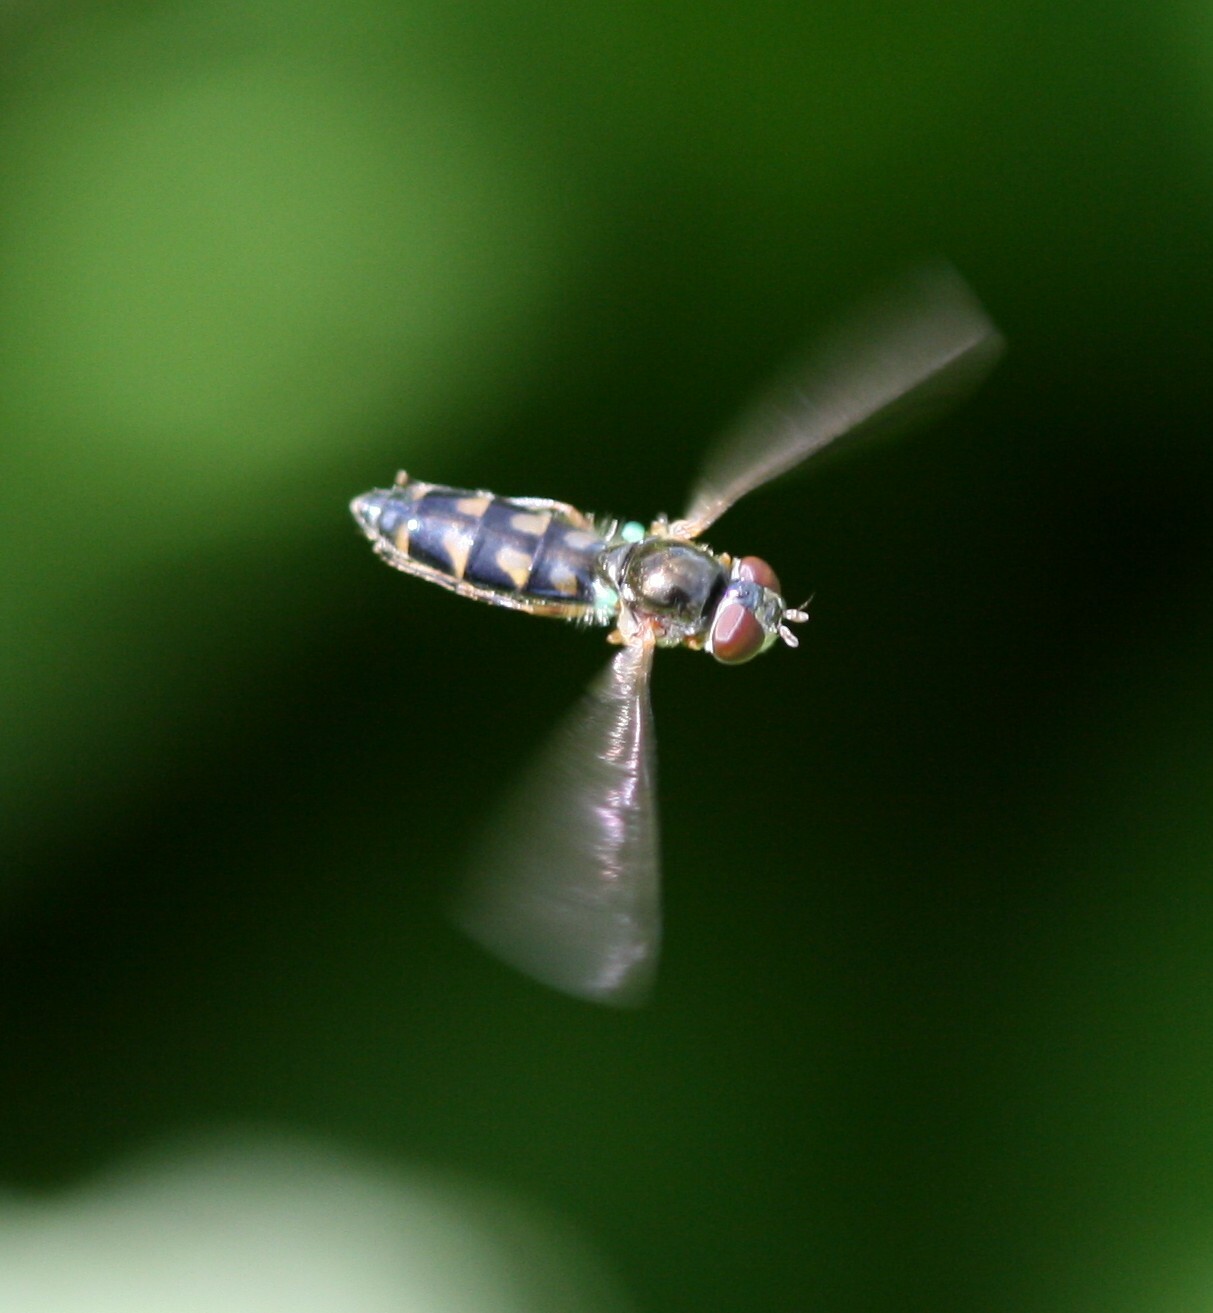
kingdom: Animalia
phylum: Arthropoda
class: Insecta
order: Diptera
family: Syrphidae
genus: Melanostoma
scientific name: Melanostoma scalare
